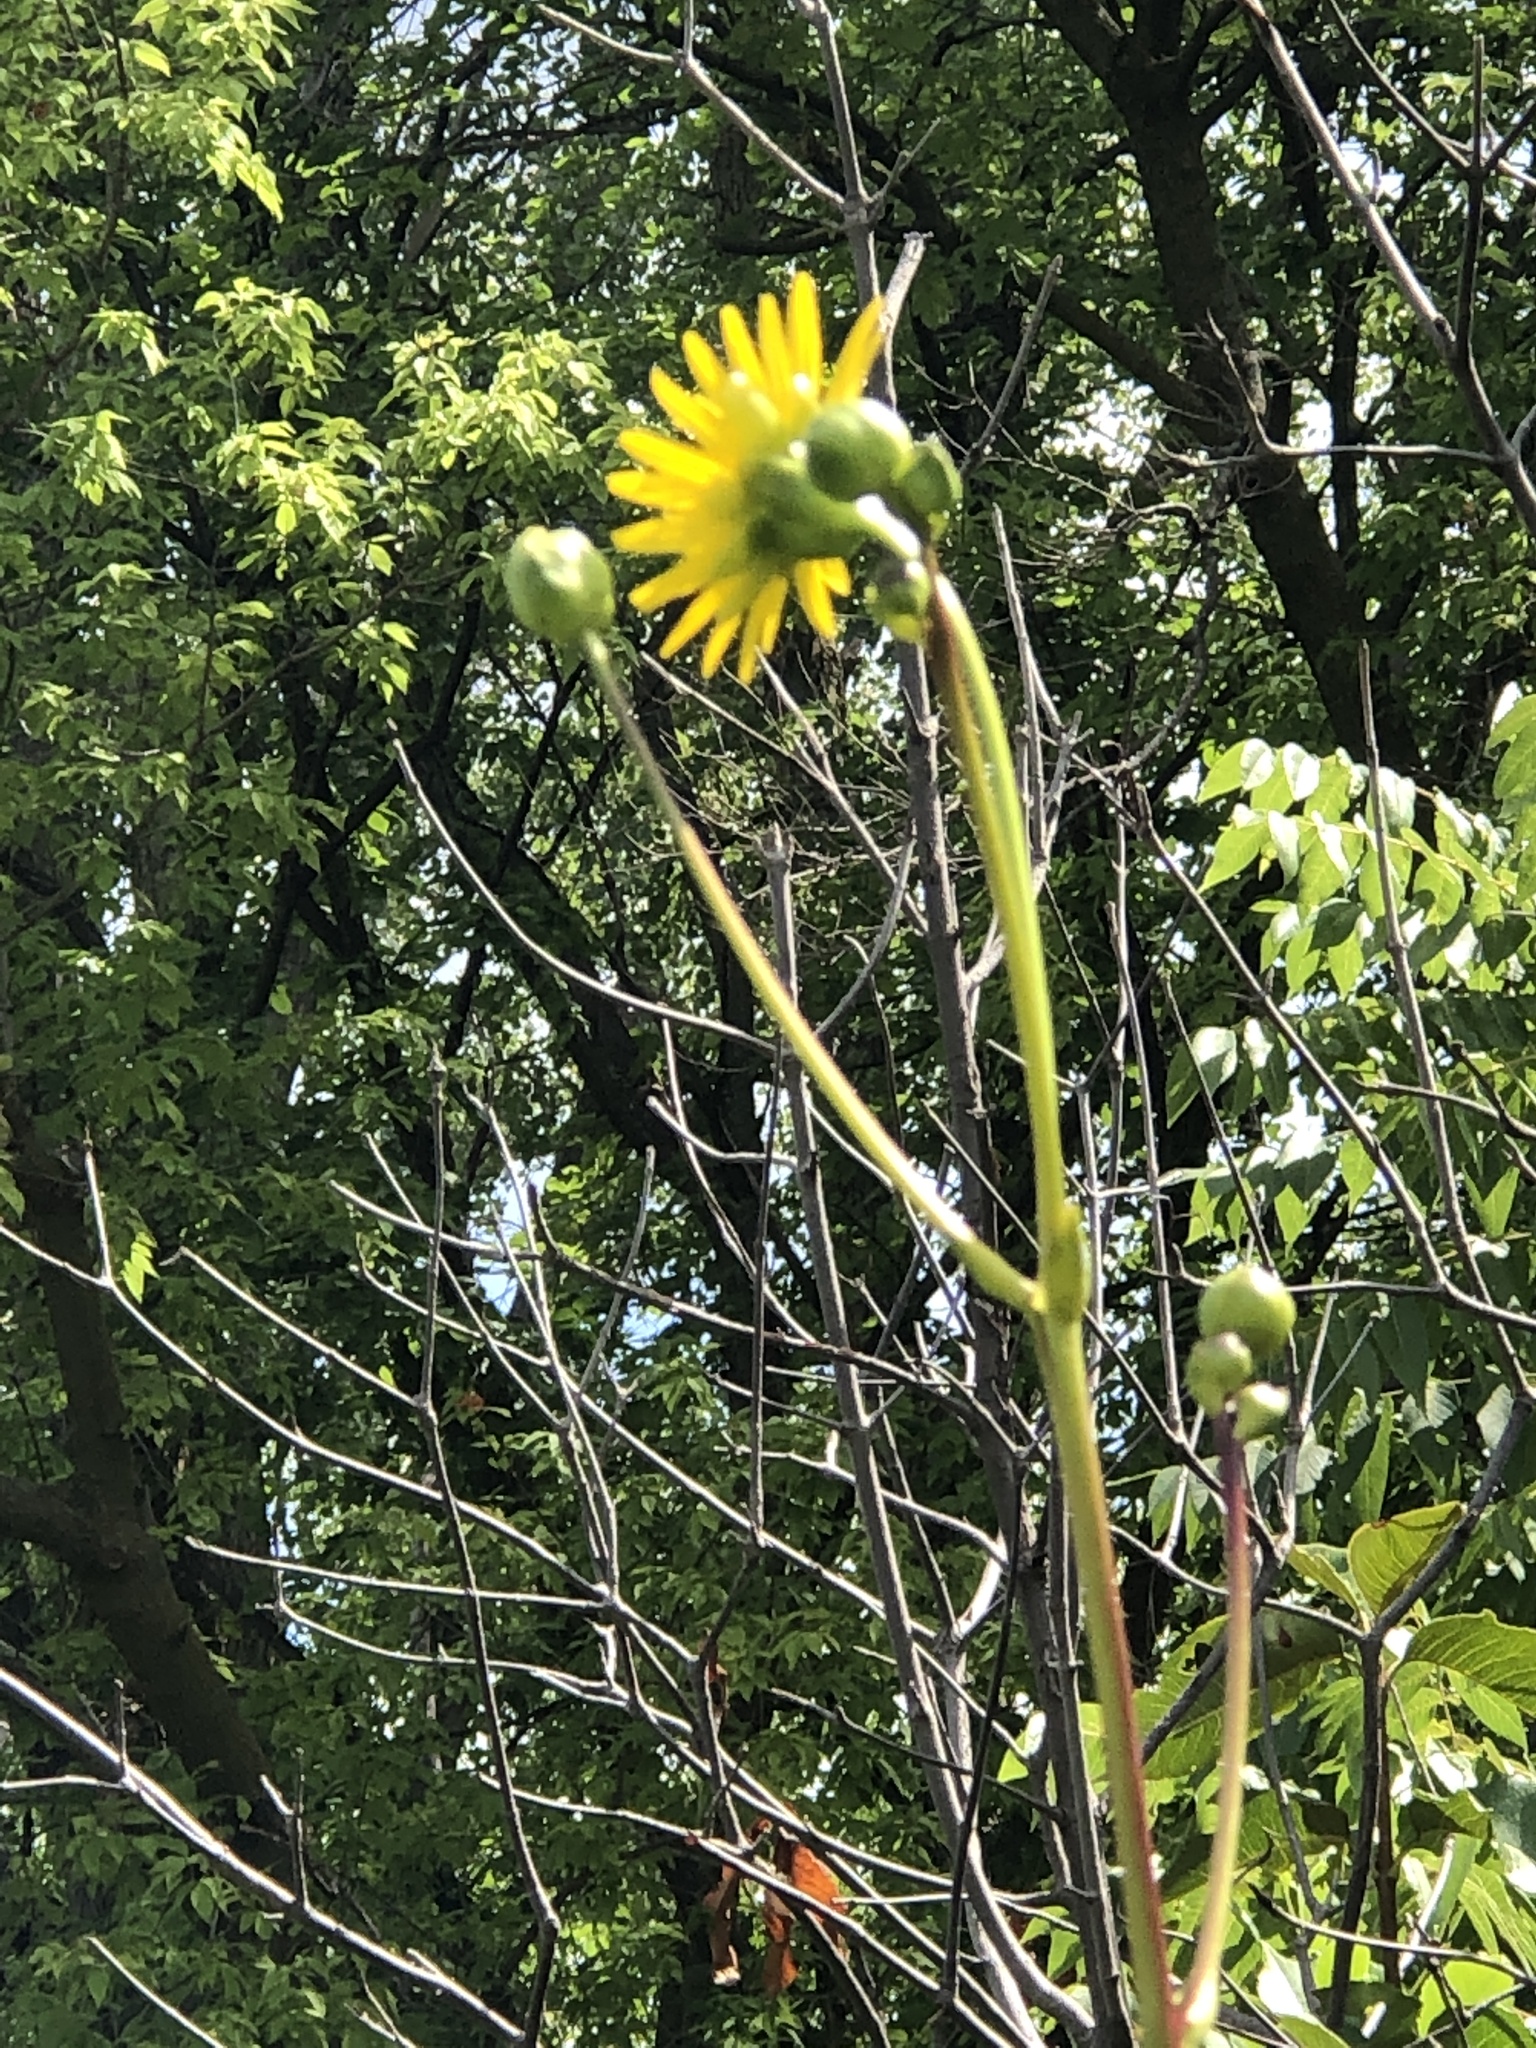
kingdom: Plantae
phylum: Tracheophyta
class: Magnoliopsida
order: Asterales
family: Asteraceae
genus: Silphium
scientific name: Silphium terebinthinaceum
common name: Basal-leaf rosinweed
